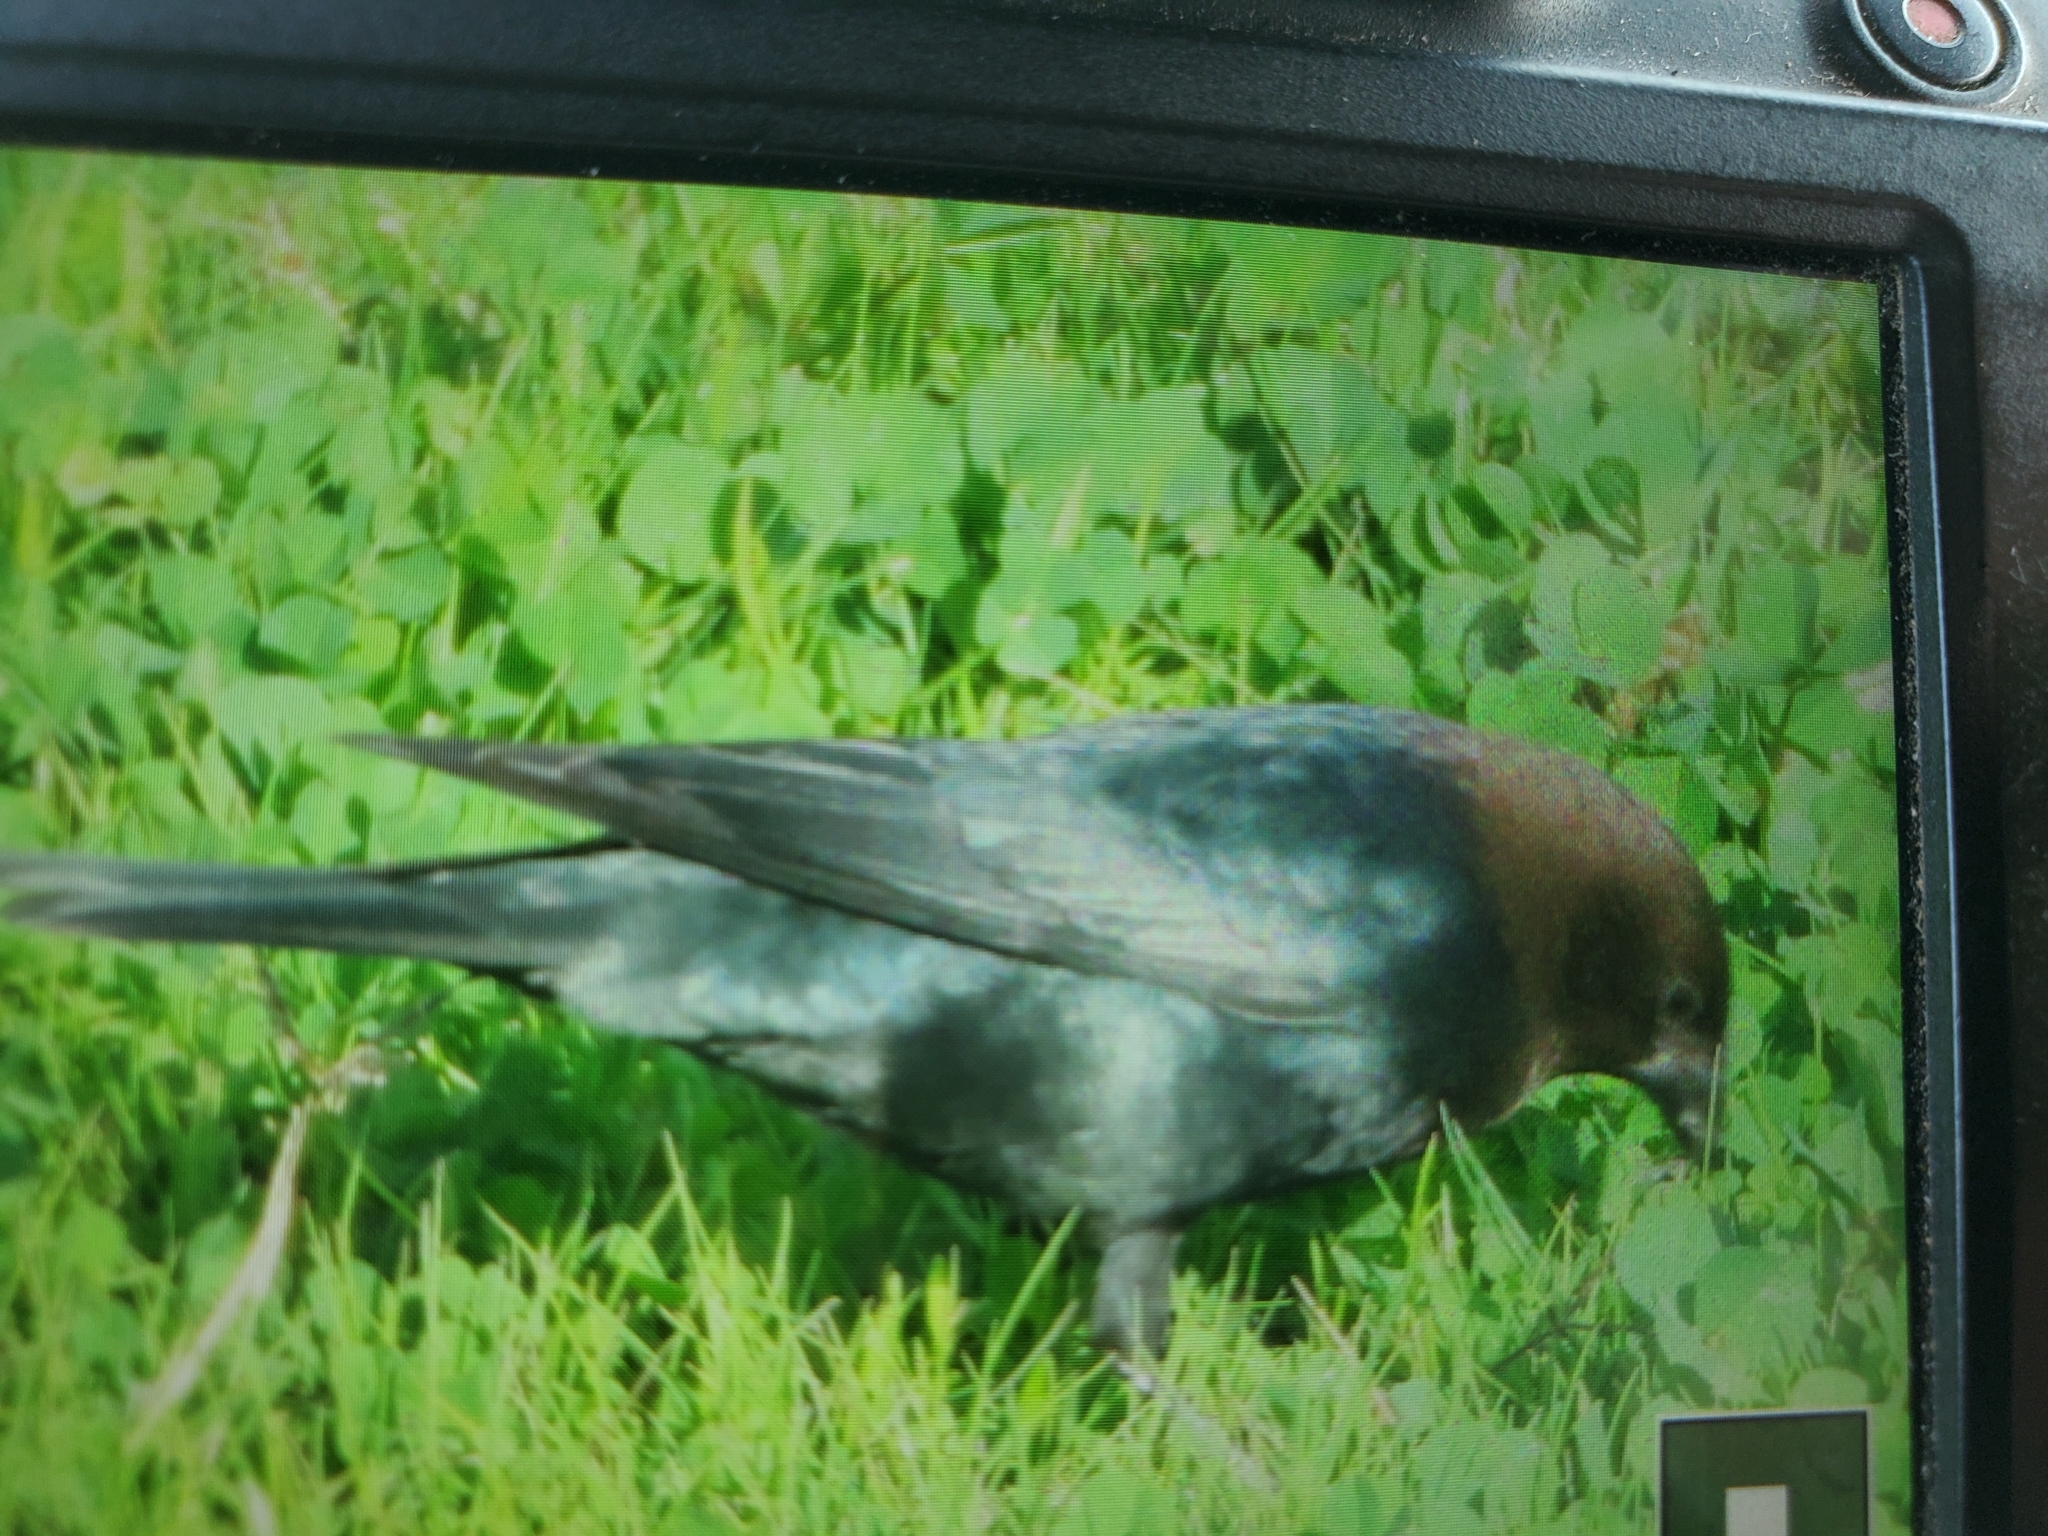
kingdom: Animalia
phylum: Chordata
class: Aves
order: Passeriformes
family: Icteridae
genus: Molothrus
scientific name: Molothrus ater
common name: Brown-headed cowbird
